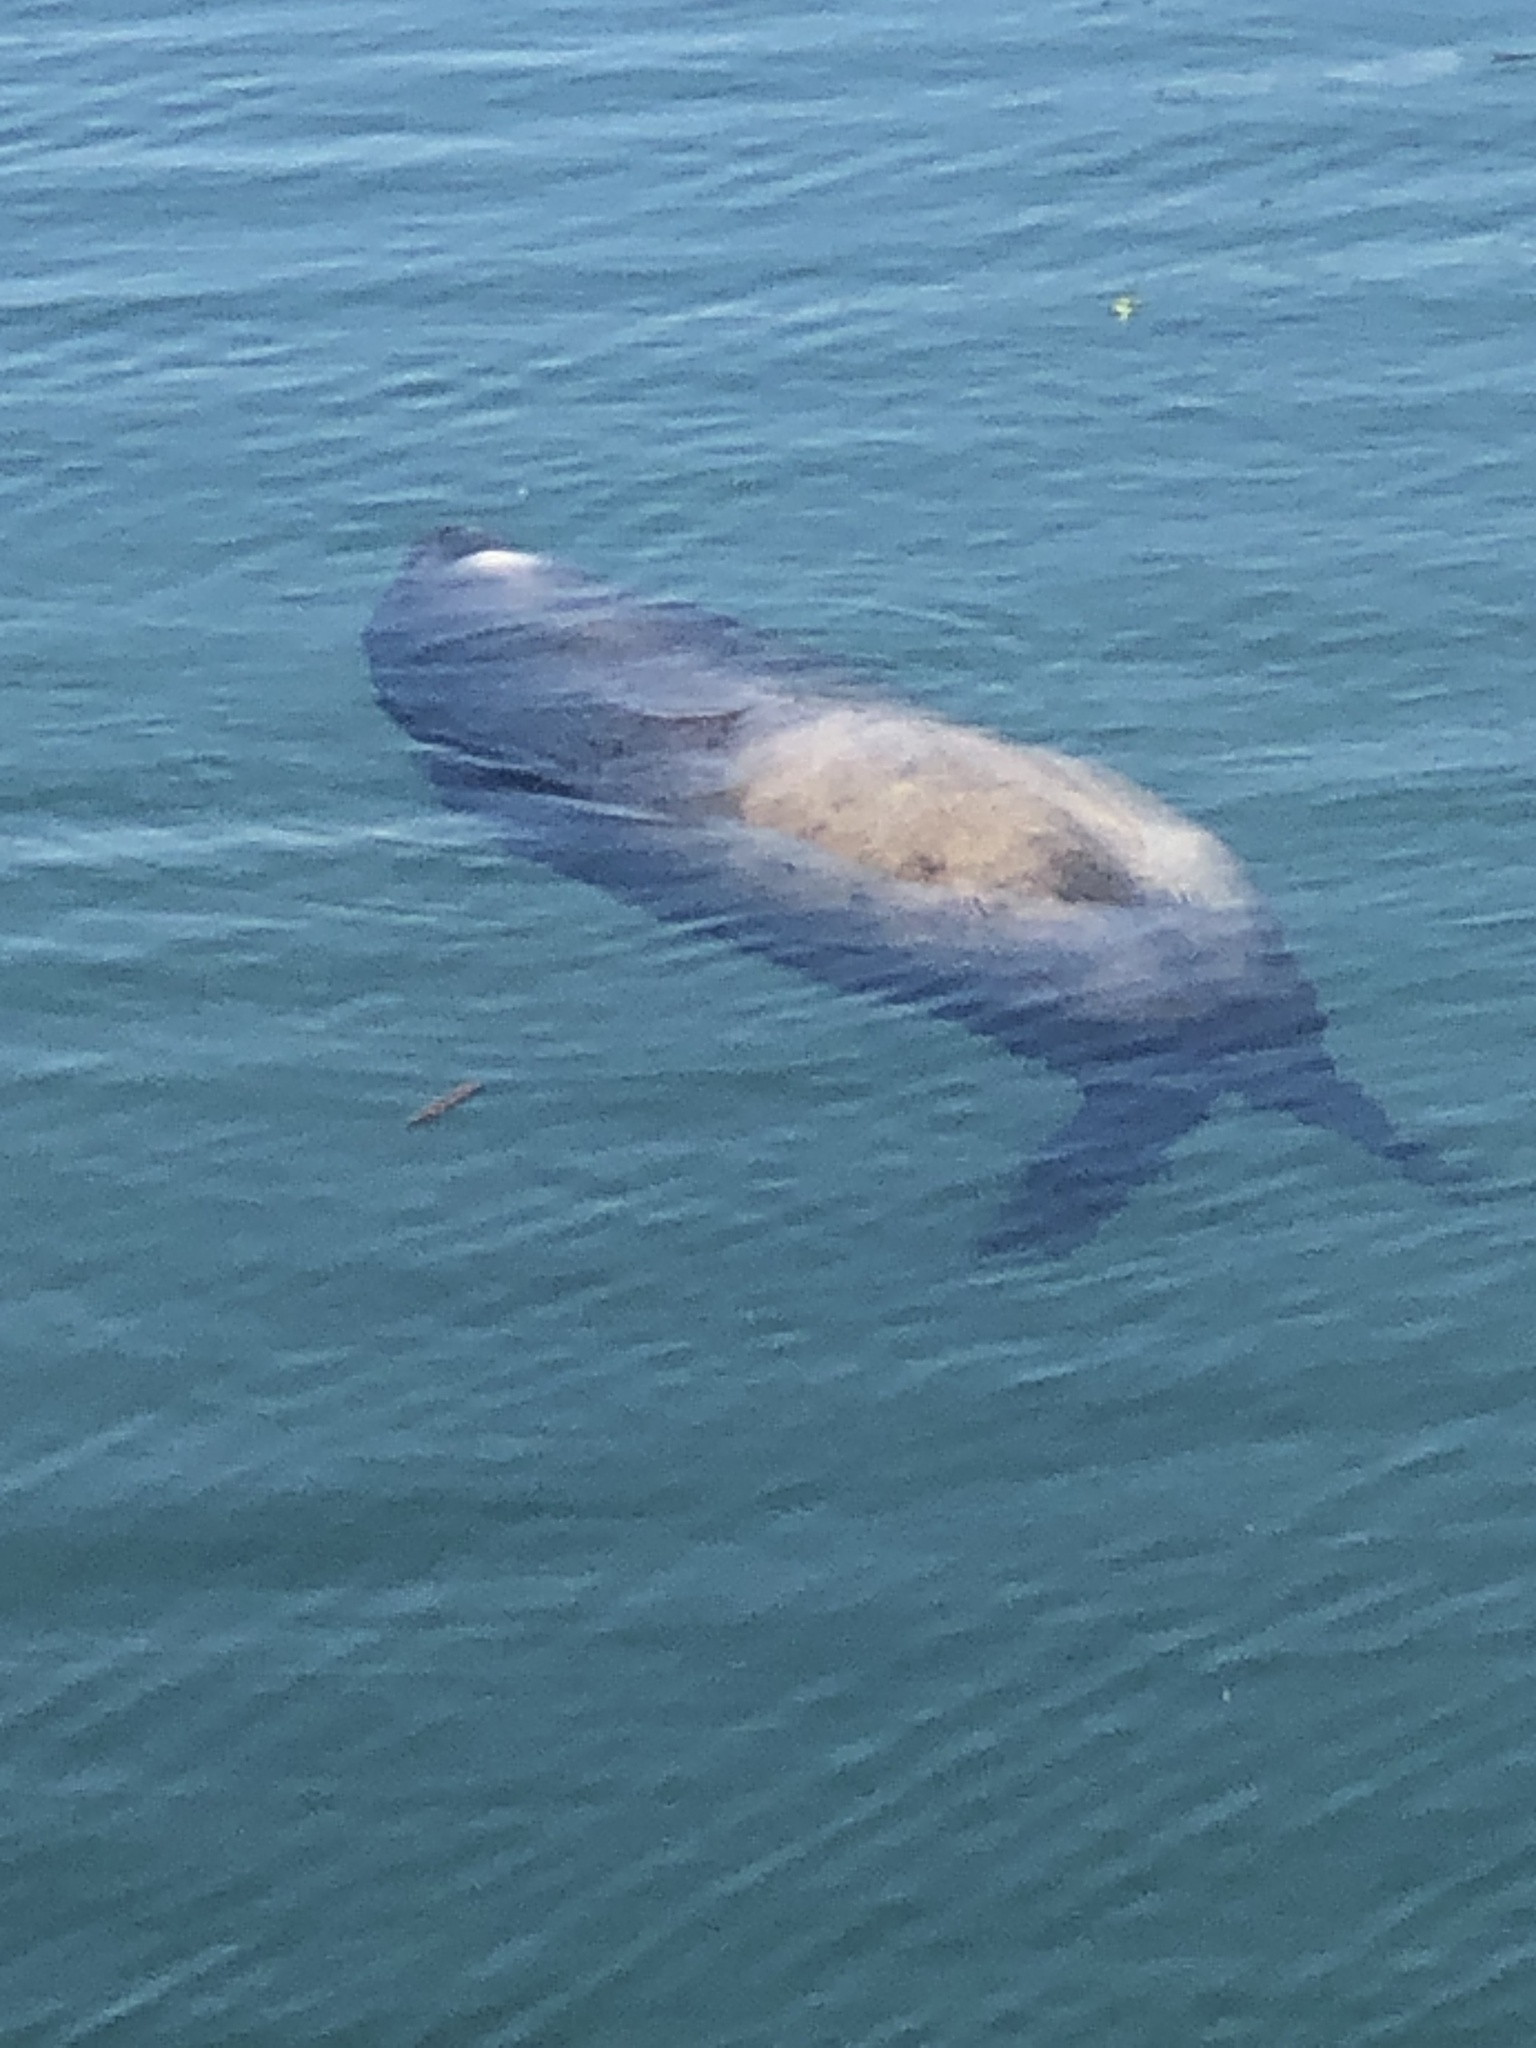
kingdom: Animalia
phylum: Chordata
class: Mammalia
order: Carnivora
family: Otariidae
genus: Zalophus
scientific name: Zalophus californianus
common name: California sea lion
